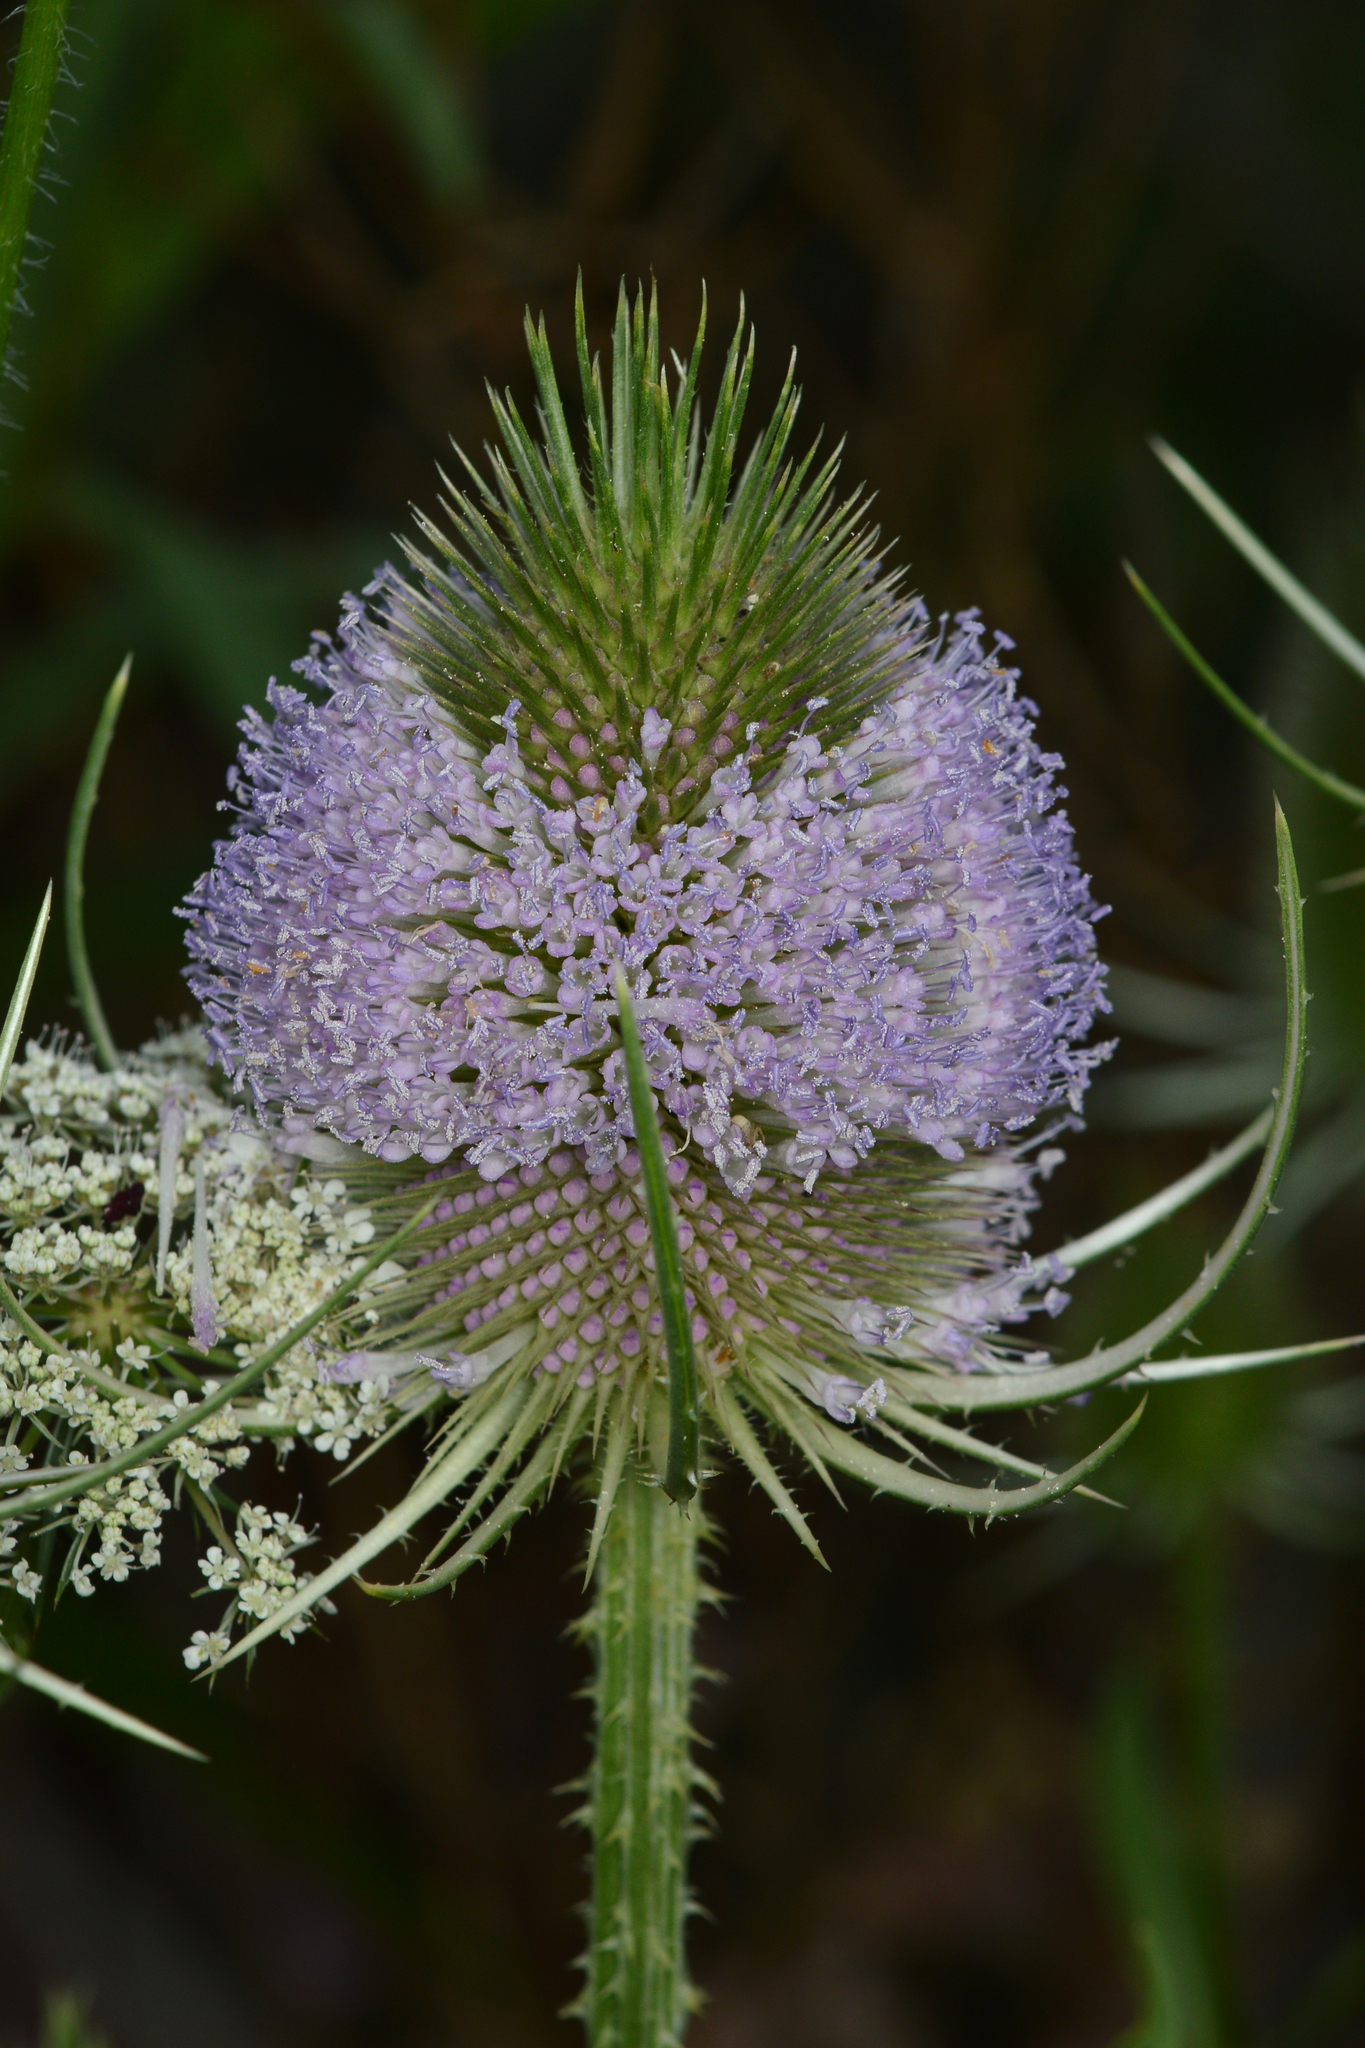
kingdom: Plantae
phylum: Tracheophyta
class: Magnoliopsida
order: Dipsacales
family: Caprifoliaceae
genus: Dipsacus
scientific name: Dipsacus fullonum
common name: Teasel
